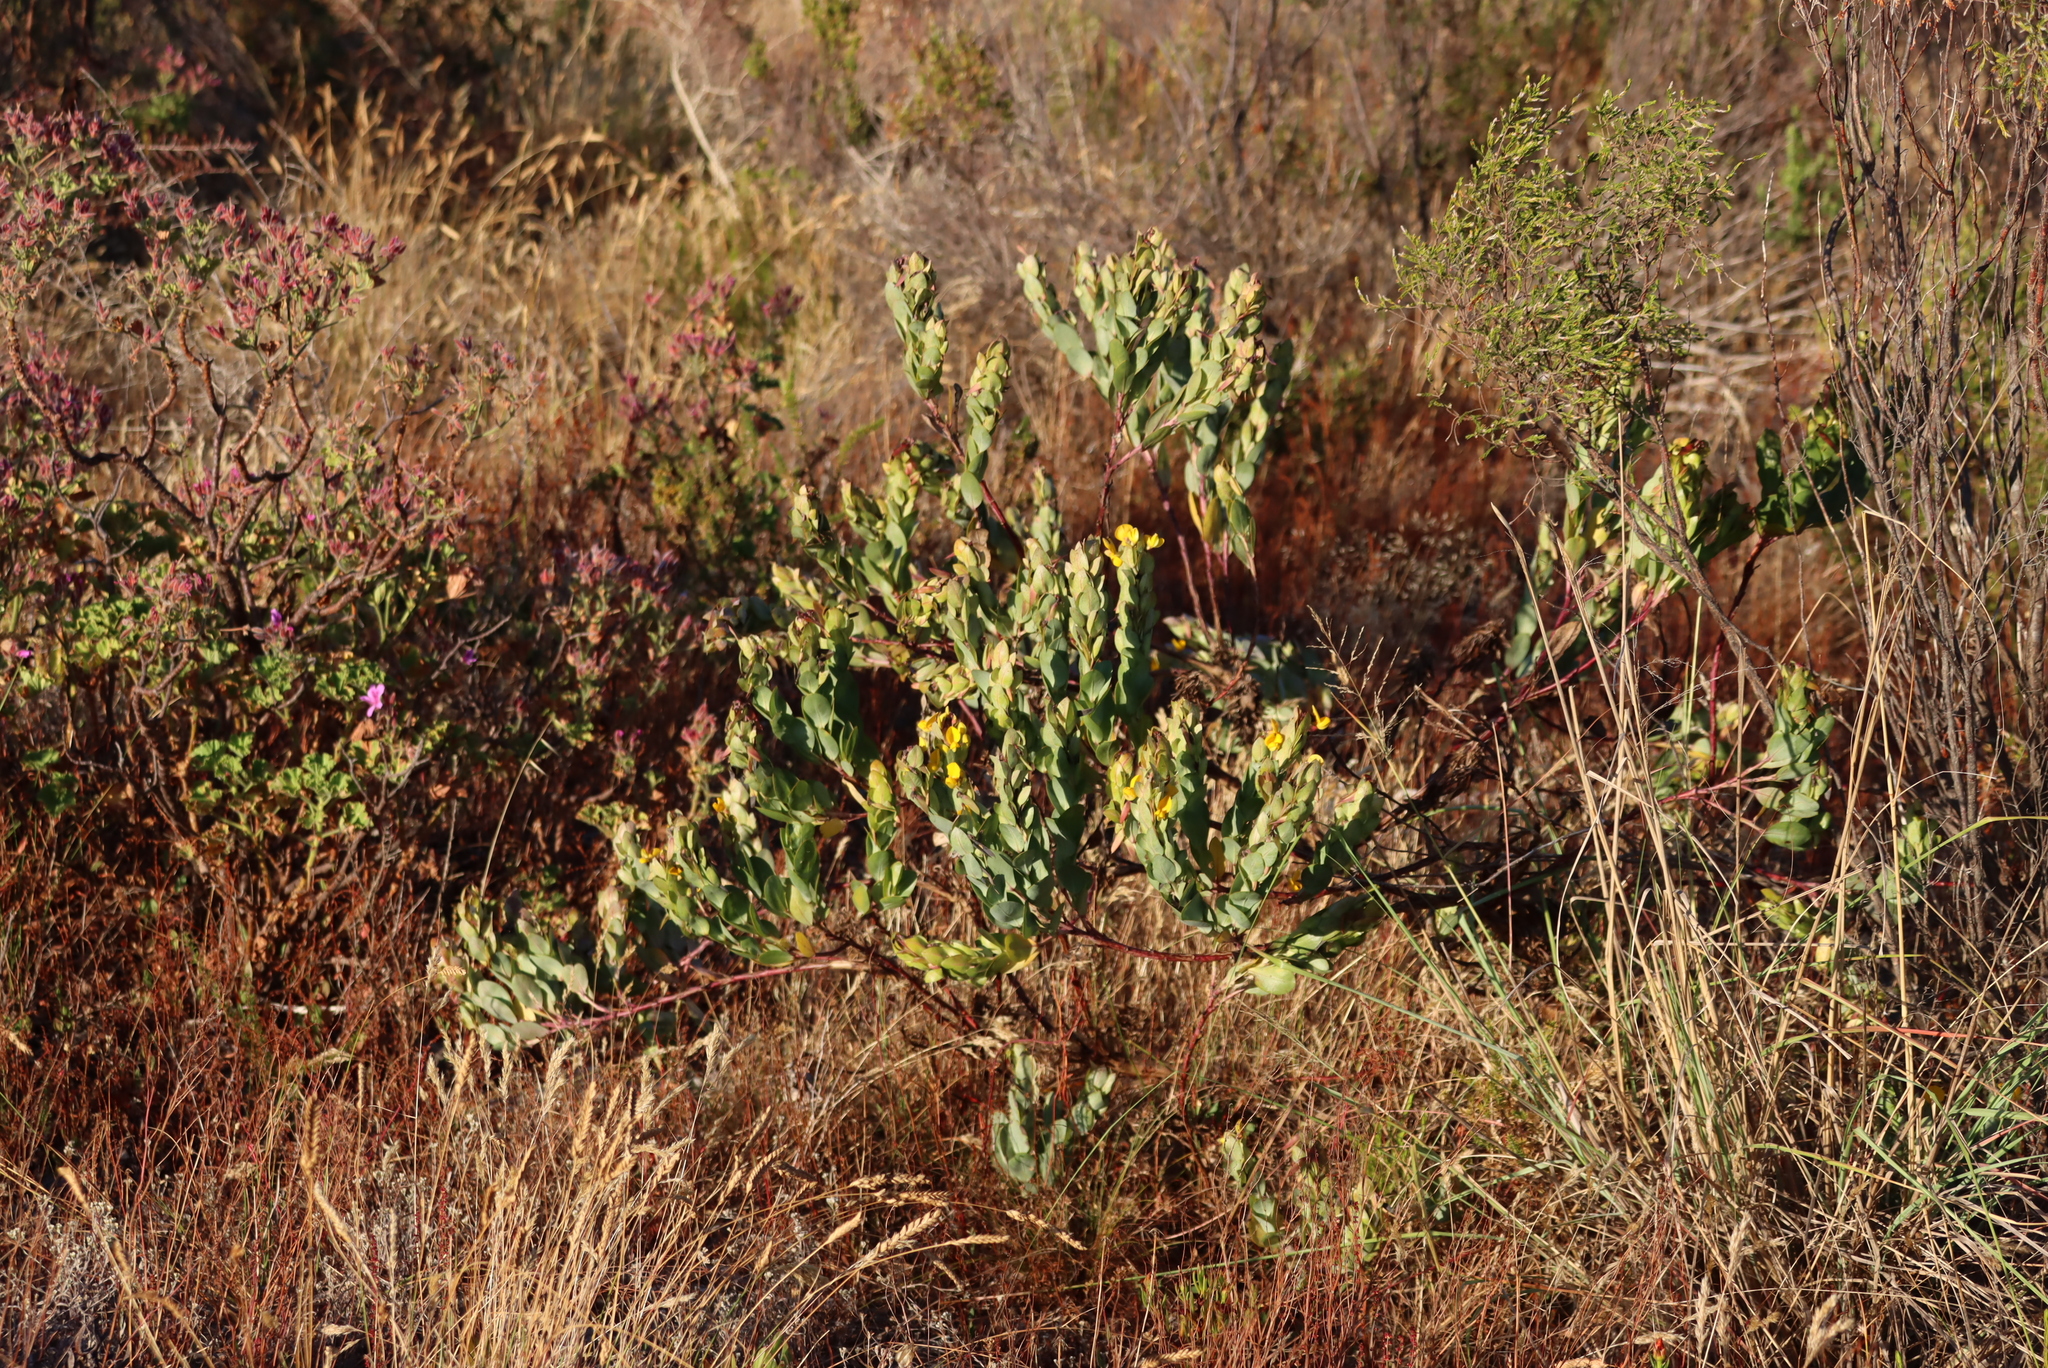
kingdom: Plantae
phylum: Tracheophyta
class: Magnoliopsida
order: Fabales
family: Fabaceae
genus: Rafnia
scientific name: Rafnia triflora
